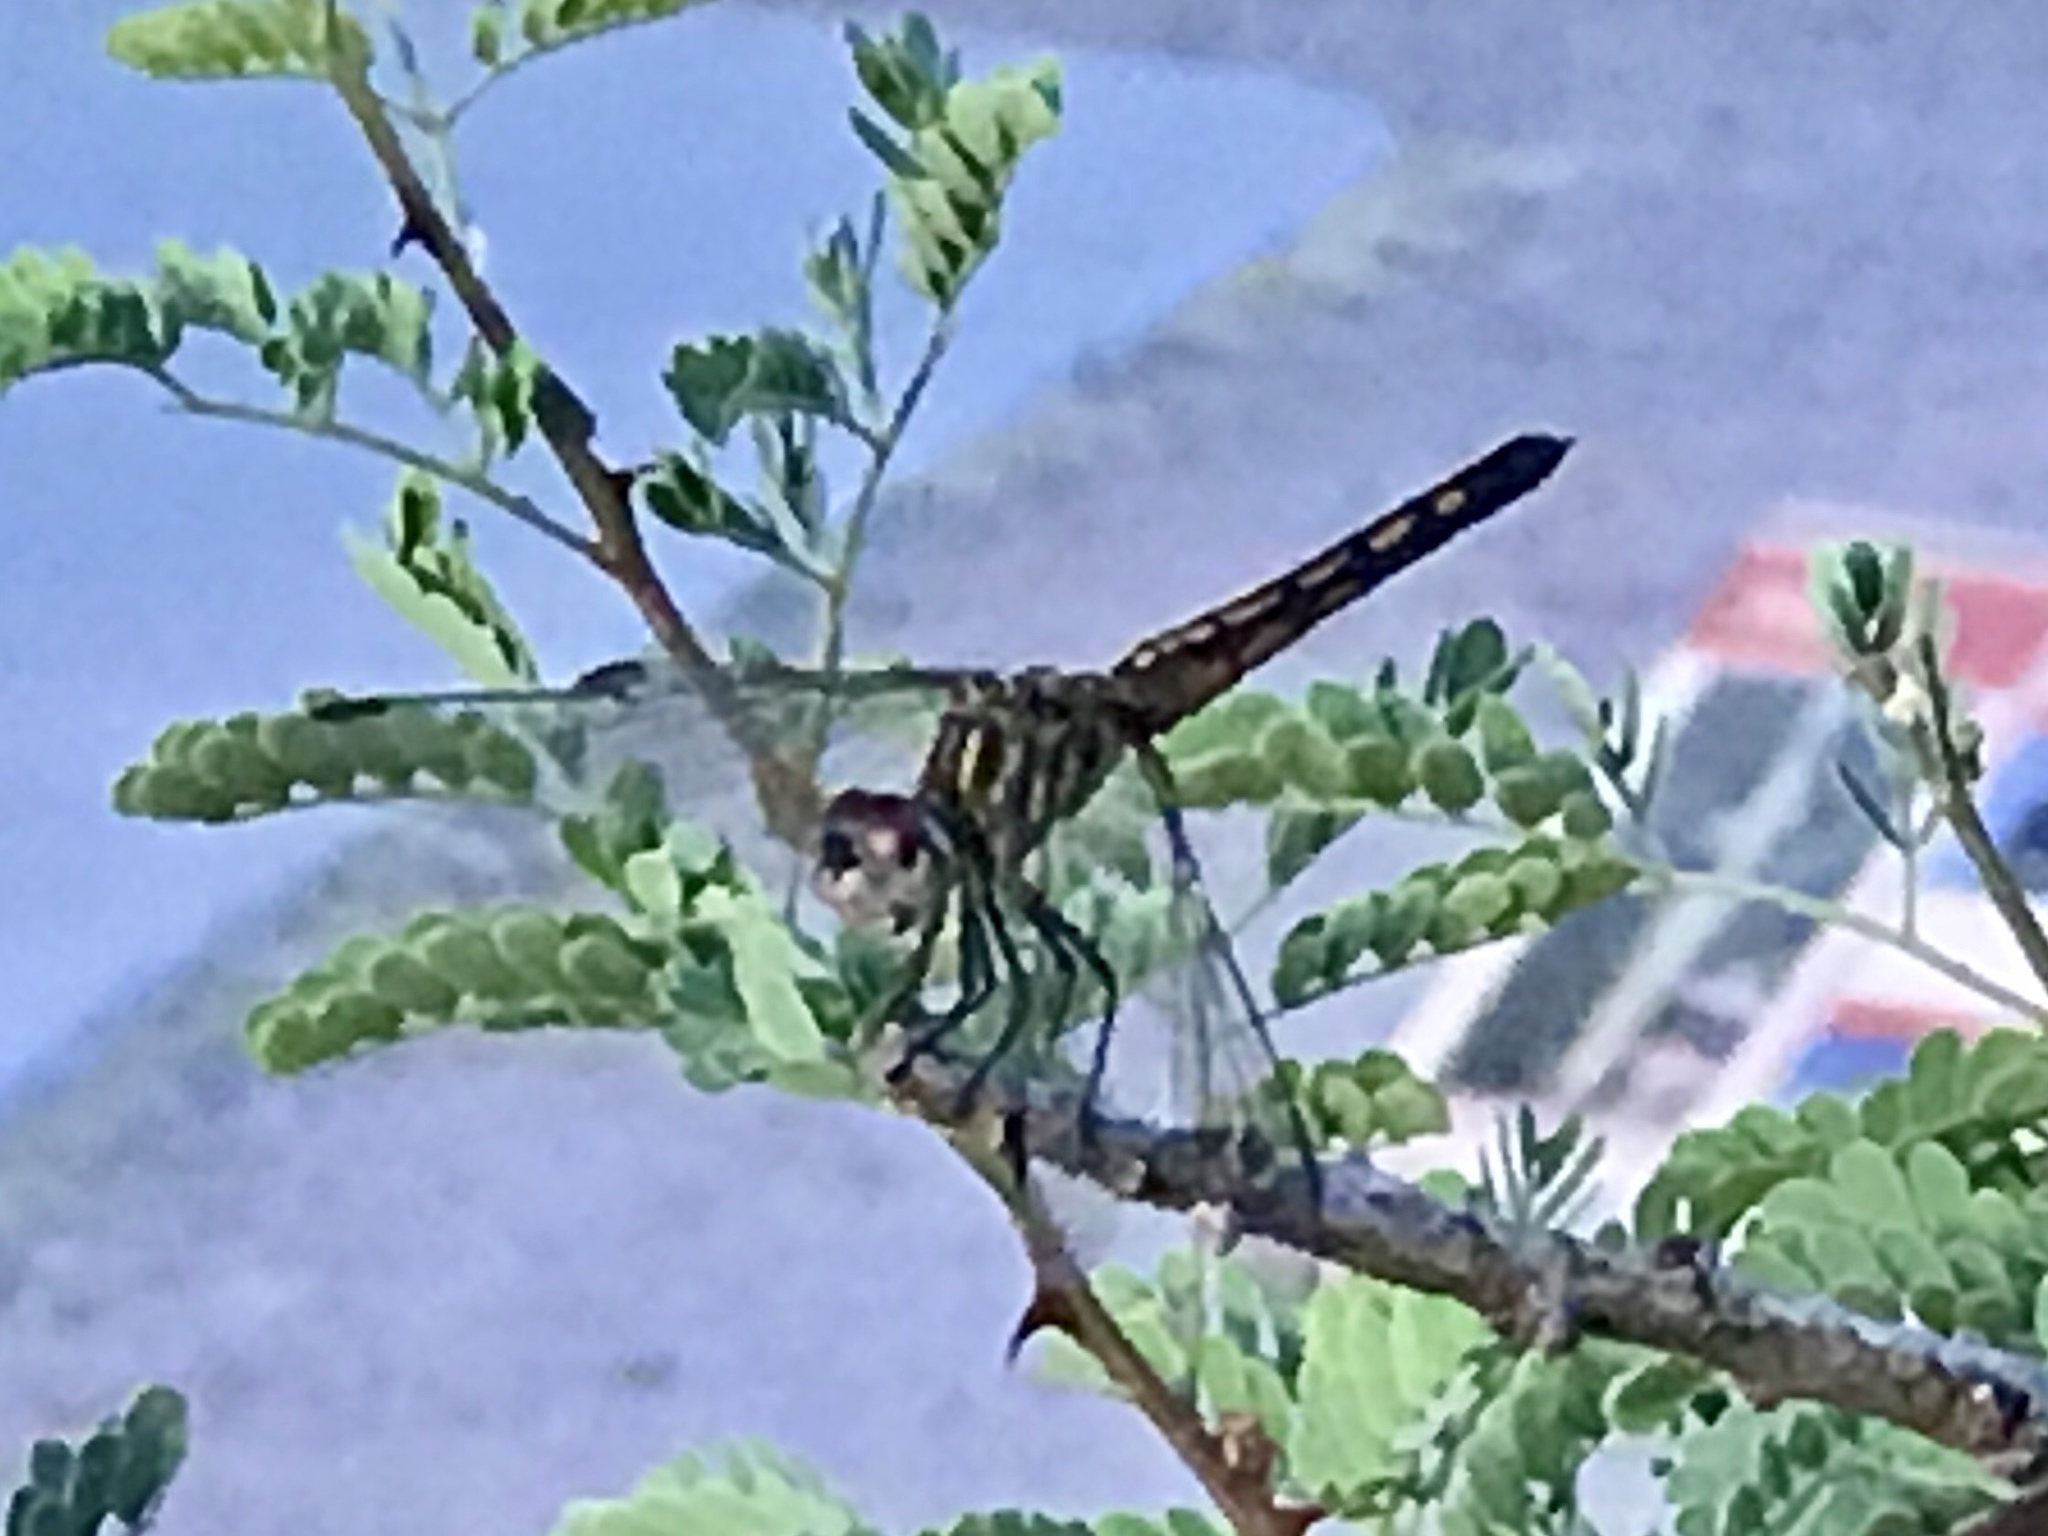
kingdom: Animalia
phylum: Arthropoda
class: Insecta
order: Odonata
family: Libellulidae
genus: Pachydiplax
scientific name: Pachydiplax longipennis
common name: Blue dasher
